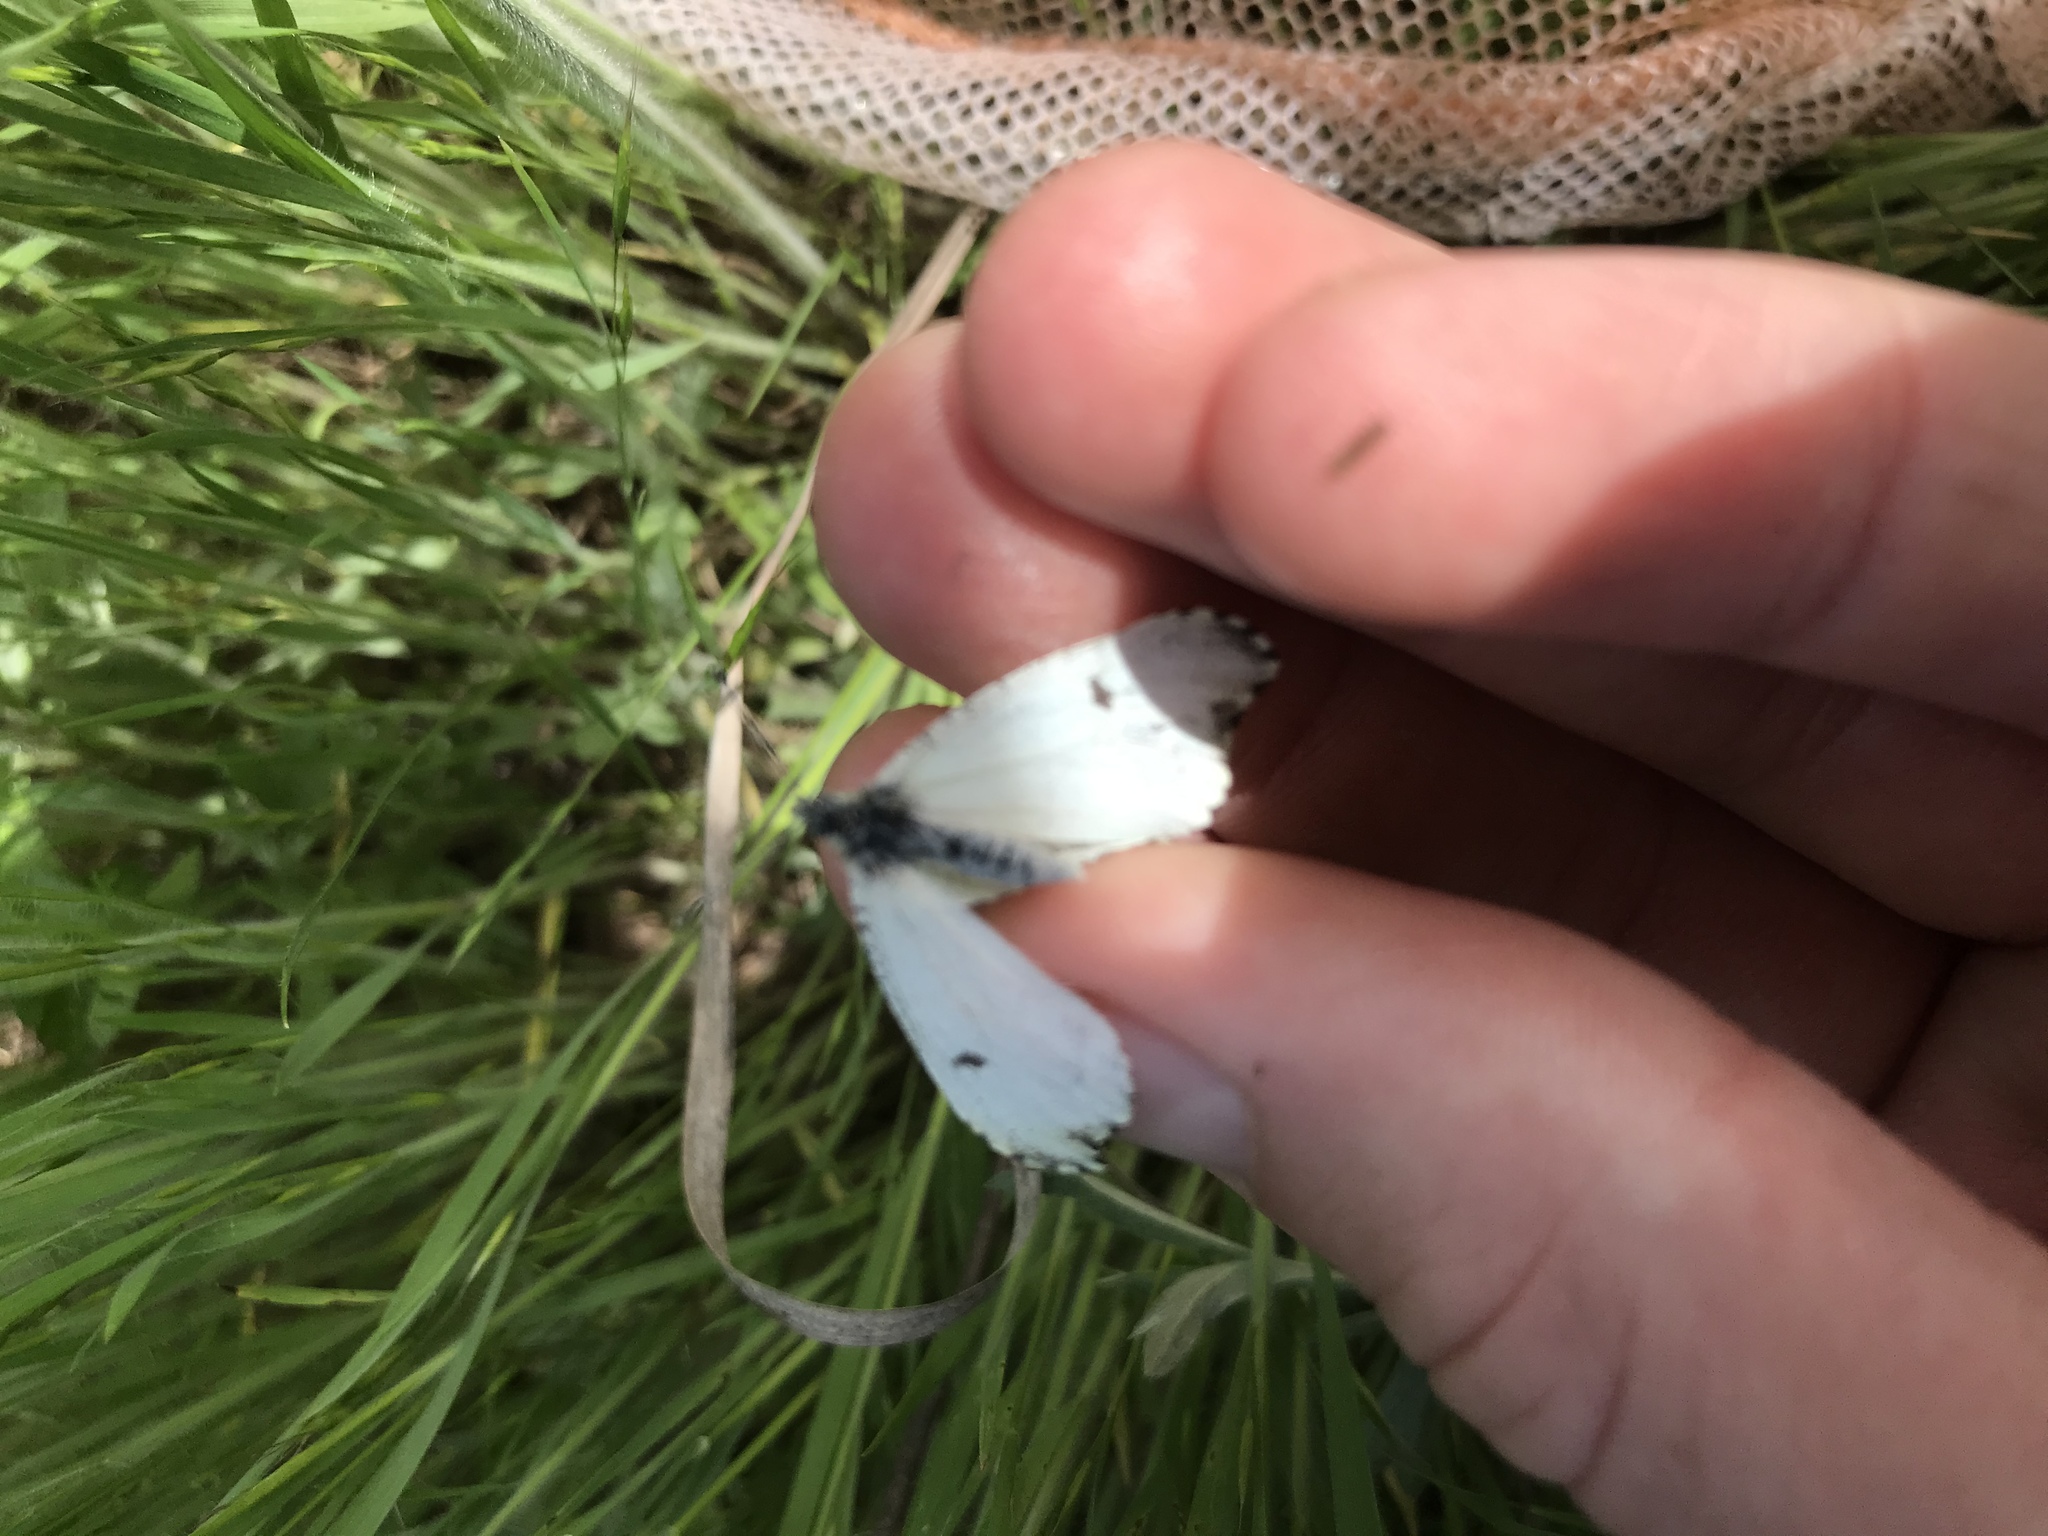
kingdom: Animalia
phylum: Arthropoda
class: Insecta
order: Lepidoptera
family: Pieridae
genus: Anthocharis
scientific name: Anthocharis midea
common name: Falcate orangetip
